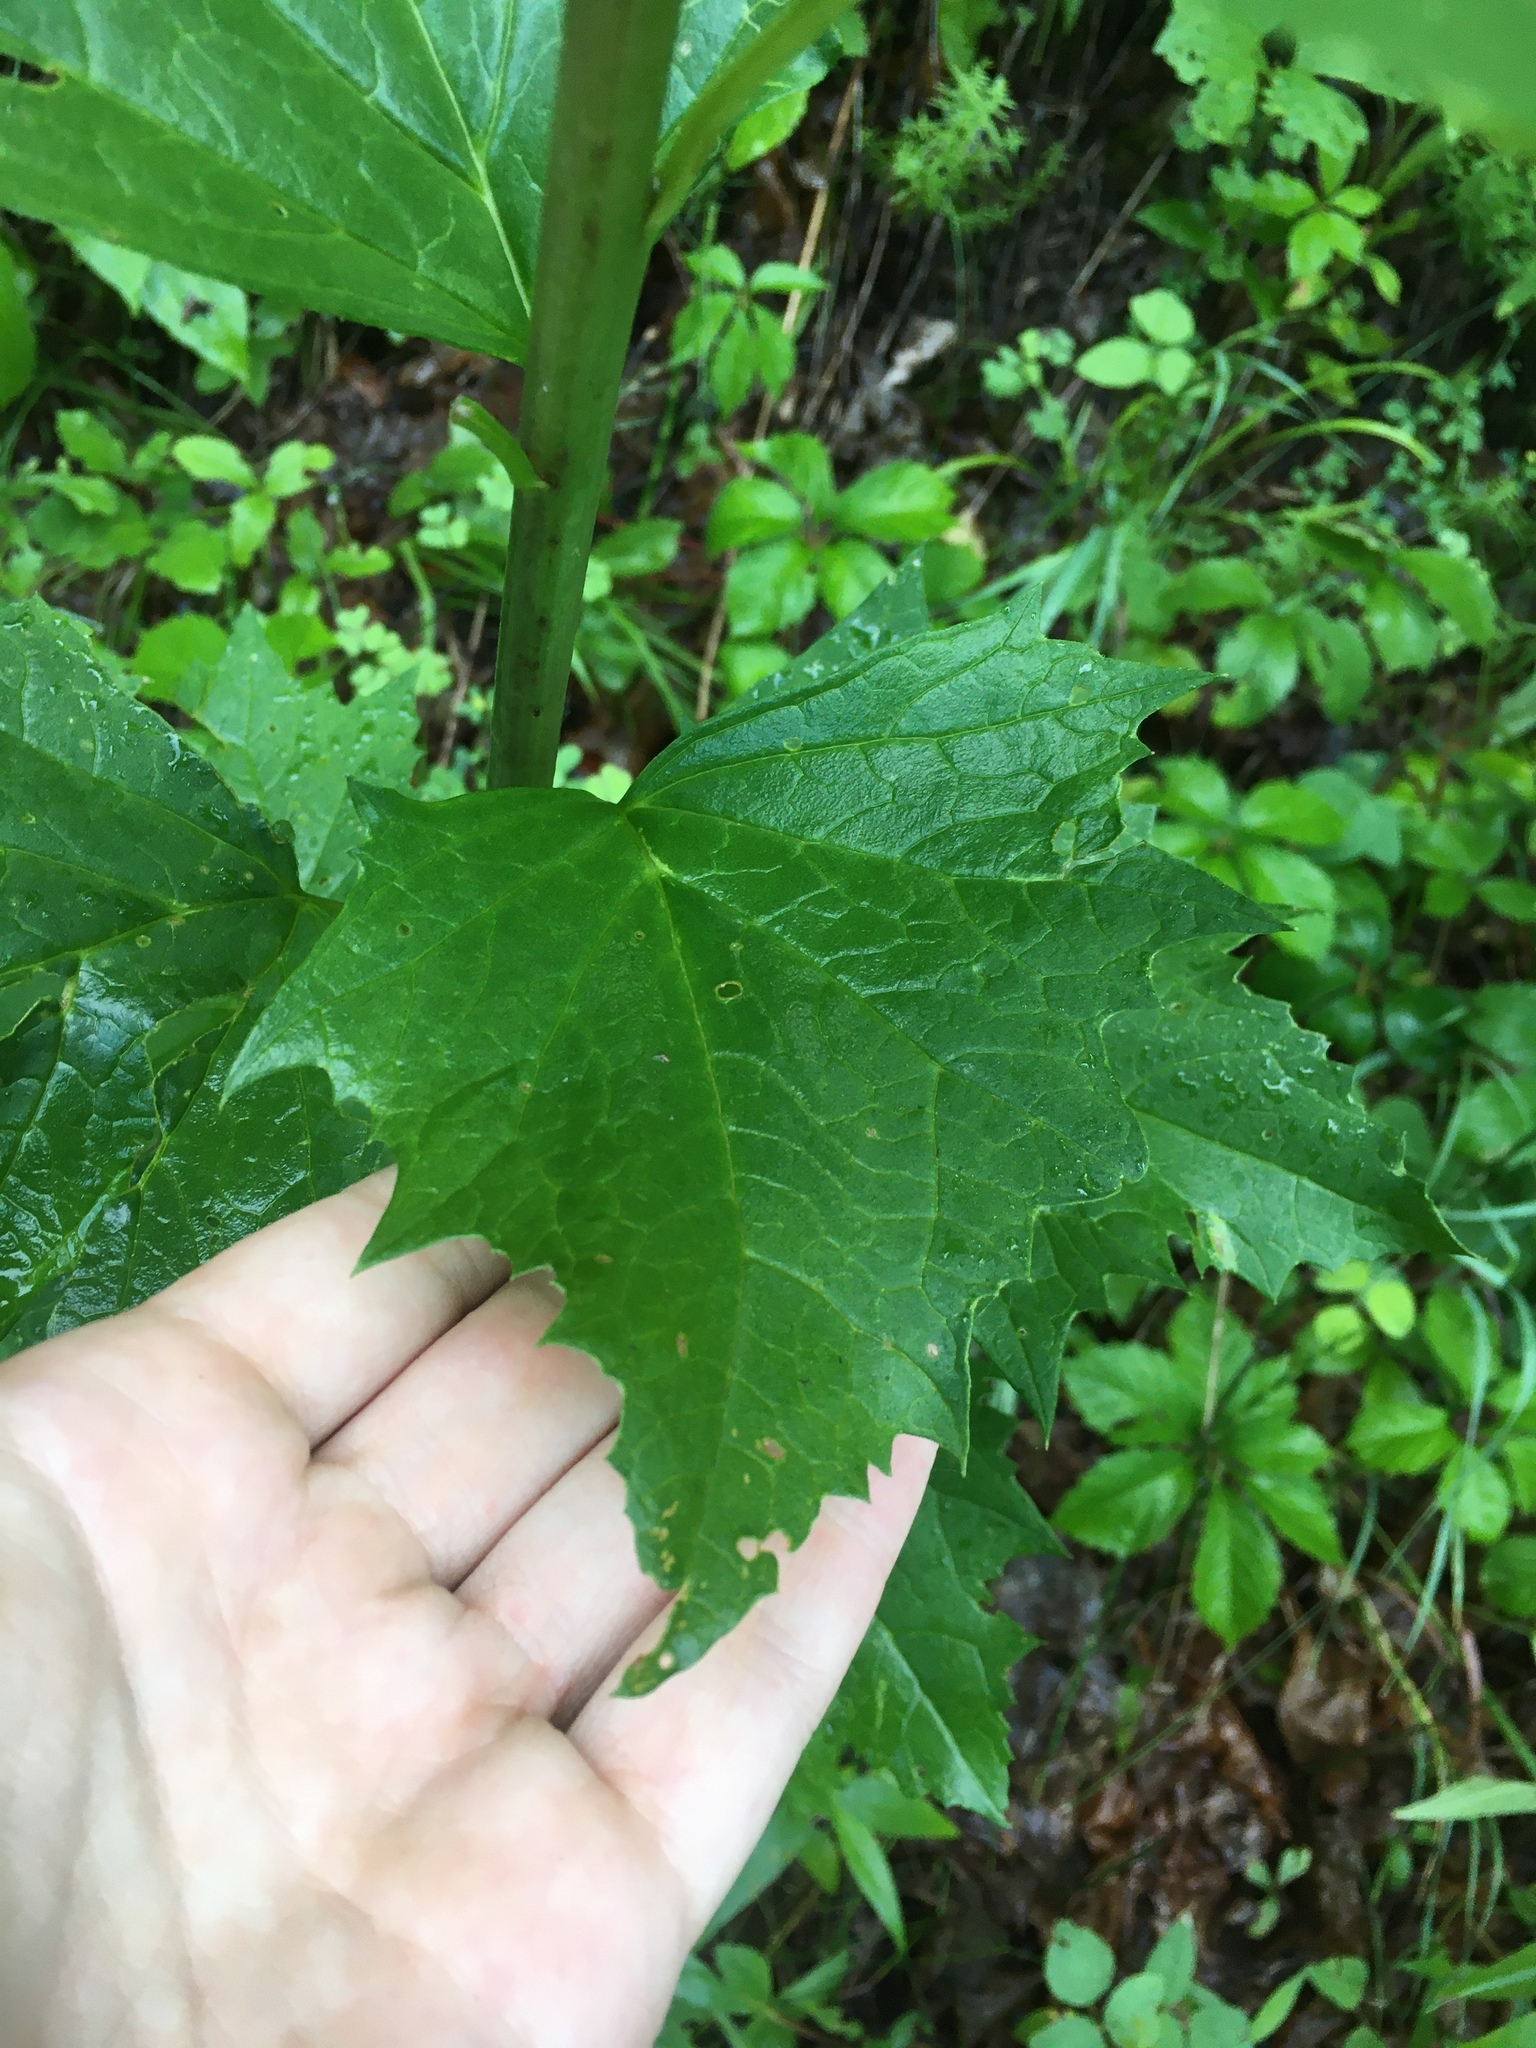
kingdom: Plantae
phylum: Tracheophyta
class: Magnoliopsida
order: Asterales
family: Asteraceae
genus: Arnoglossum
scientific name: Arnoglossum reniforme
